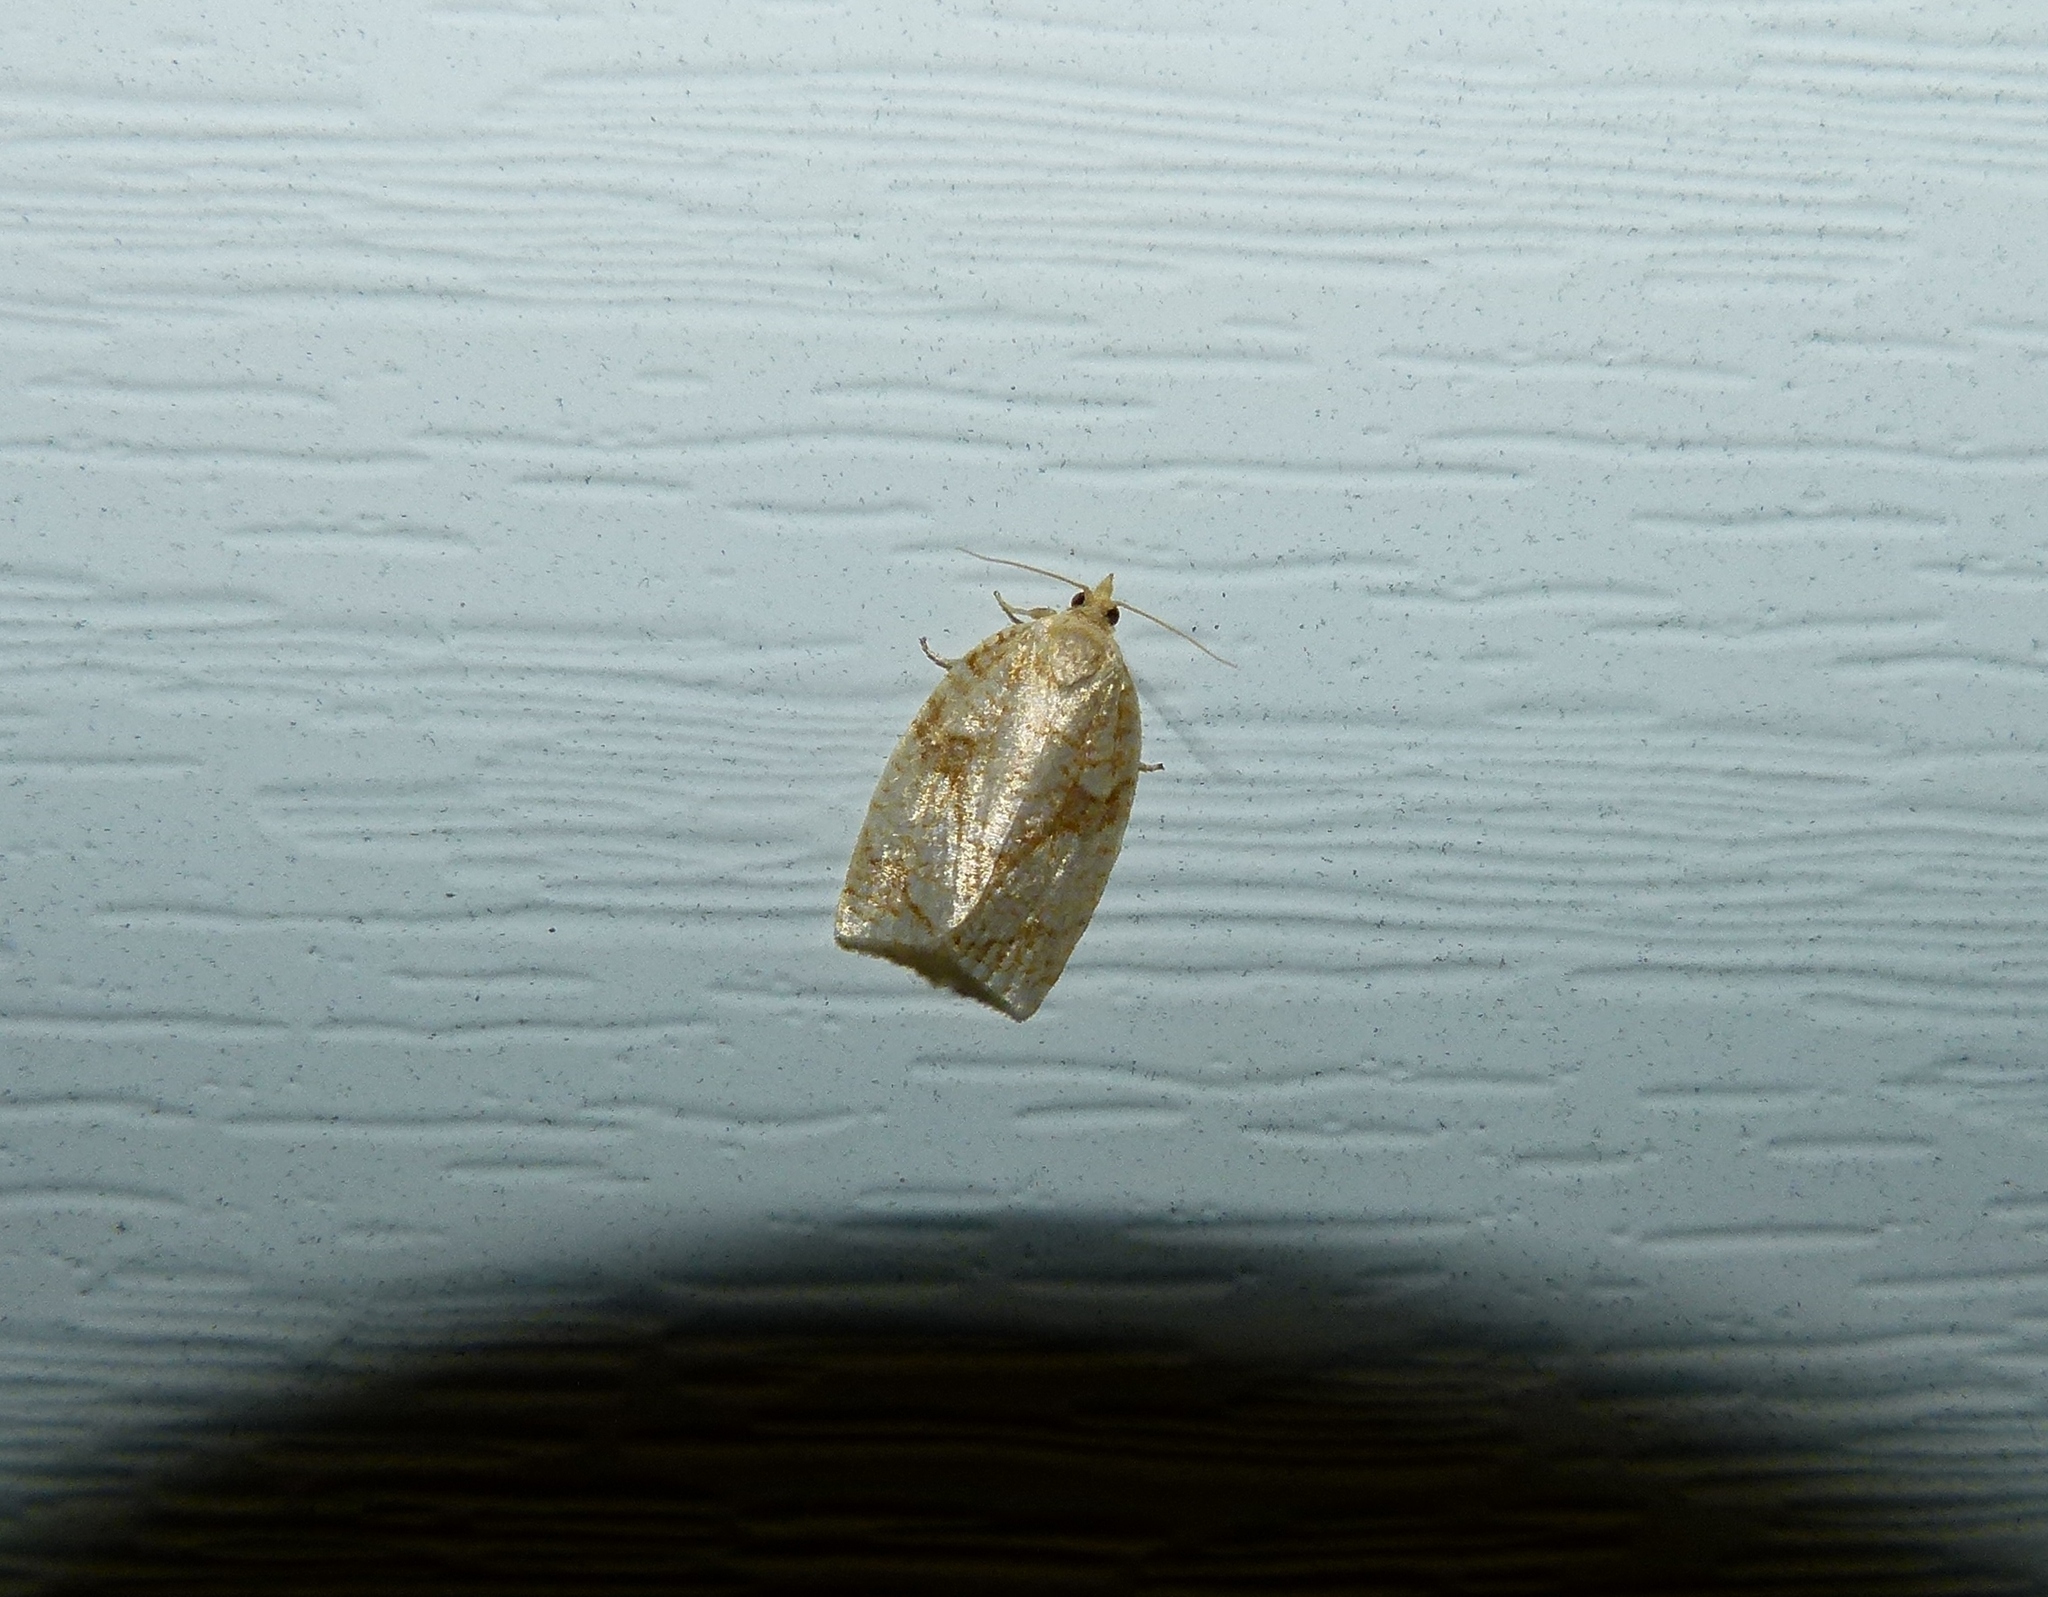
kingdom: Animalia
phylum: Arthropoda
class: Insecta
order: Lepidoptera
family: Tortricidae
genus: Adoxophyes
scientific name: Adoxophyes negundana
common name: Shimmering gold adoxophyes moth
